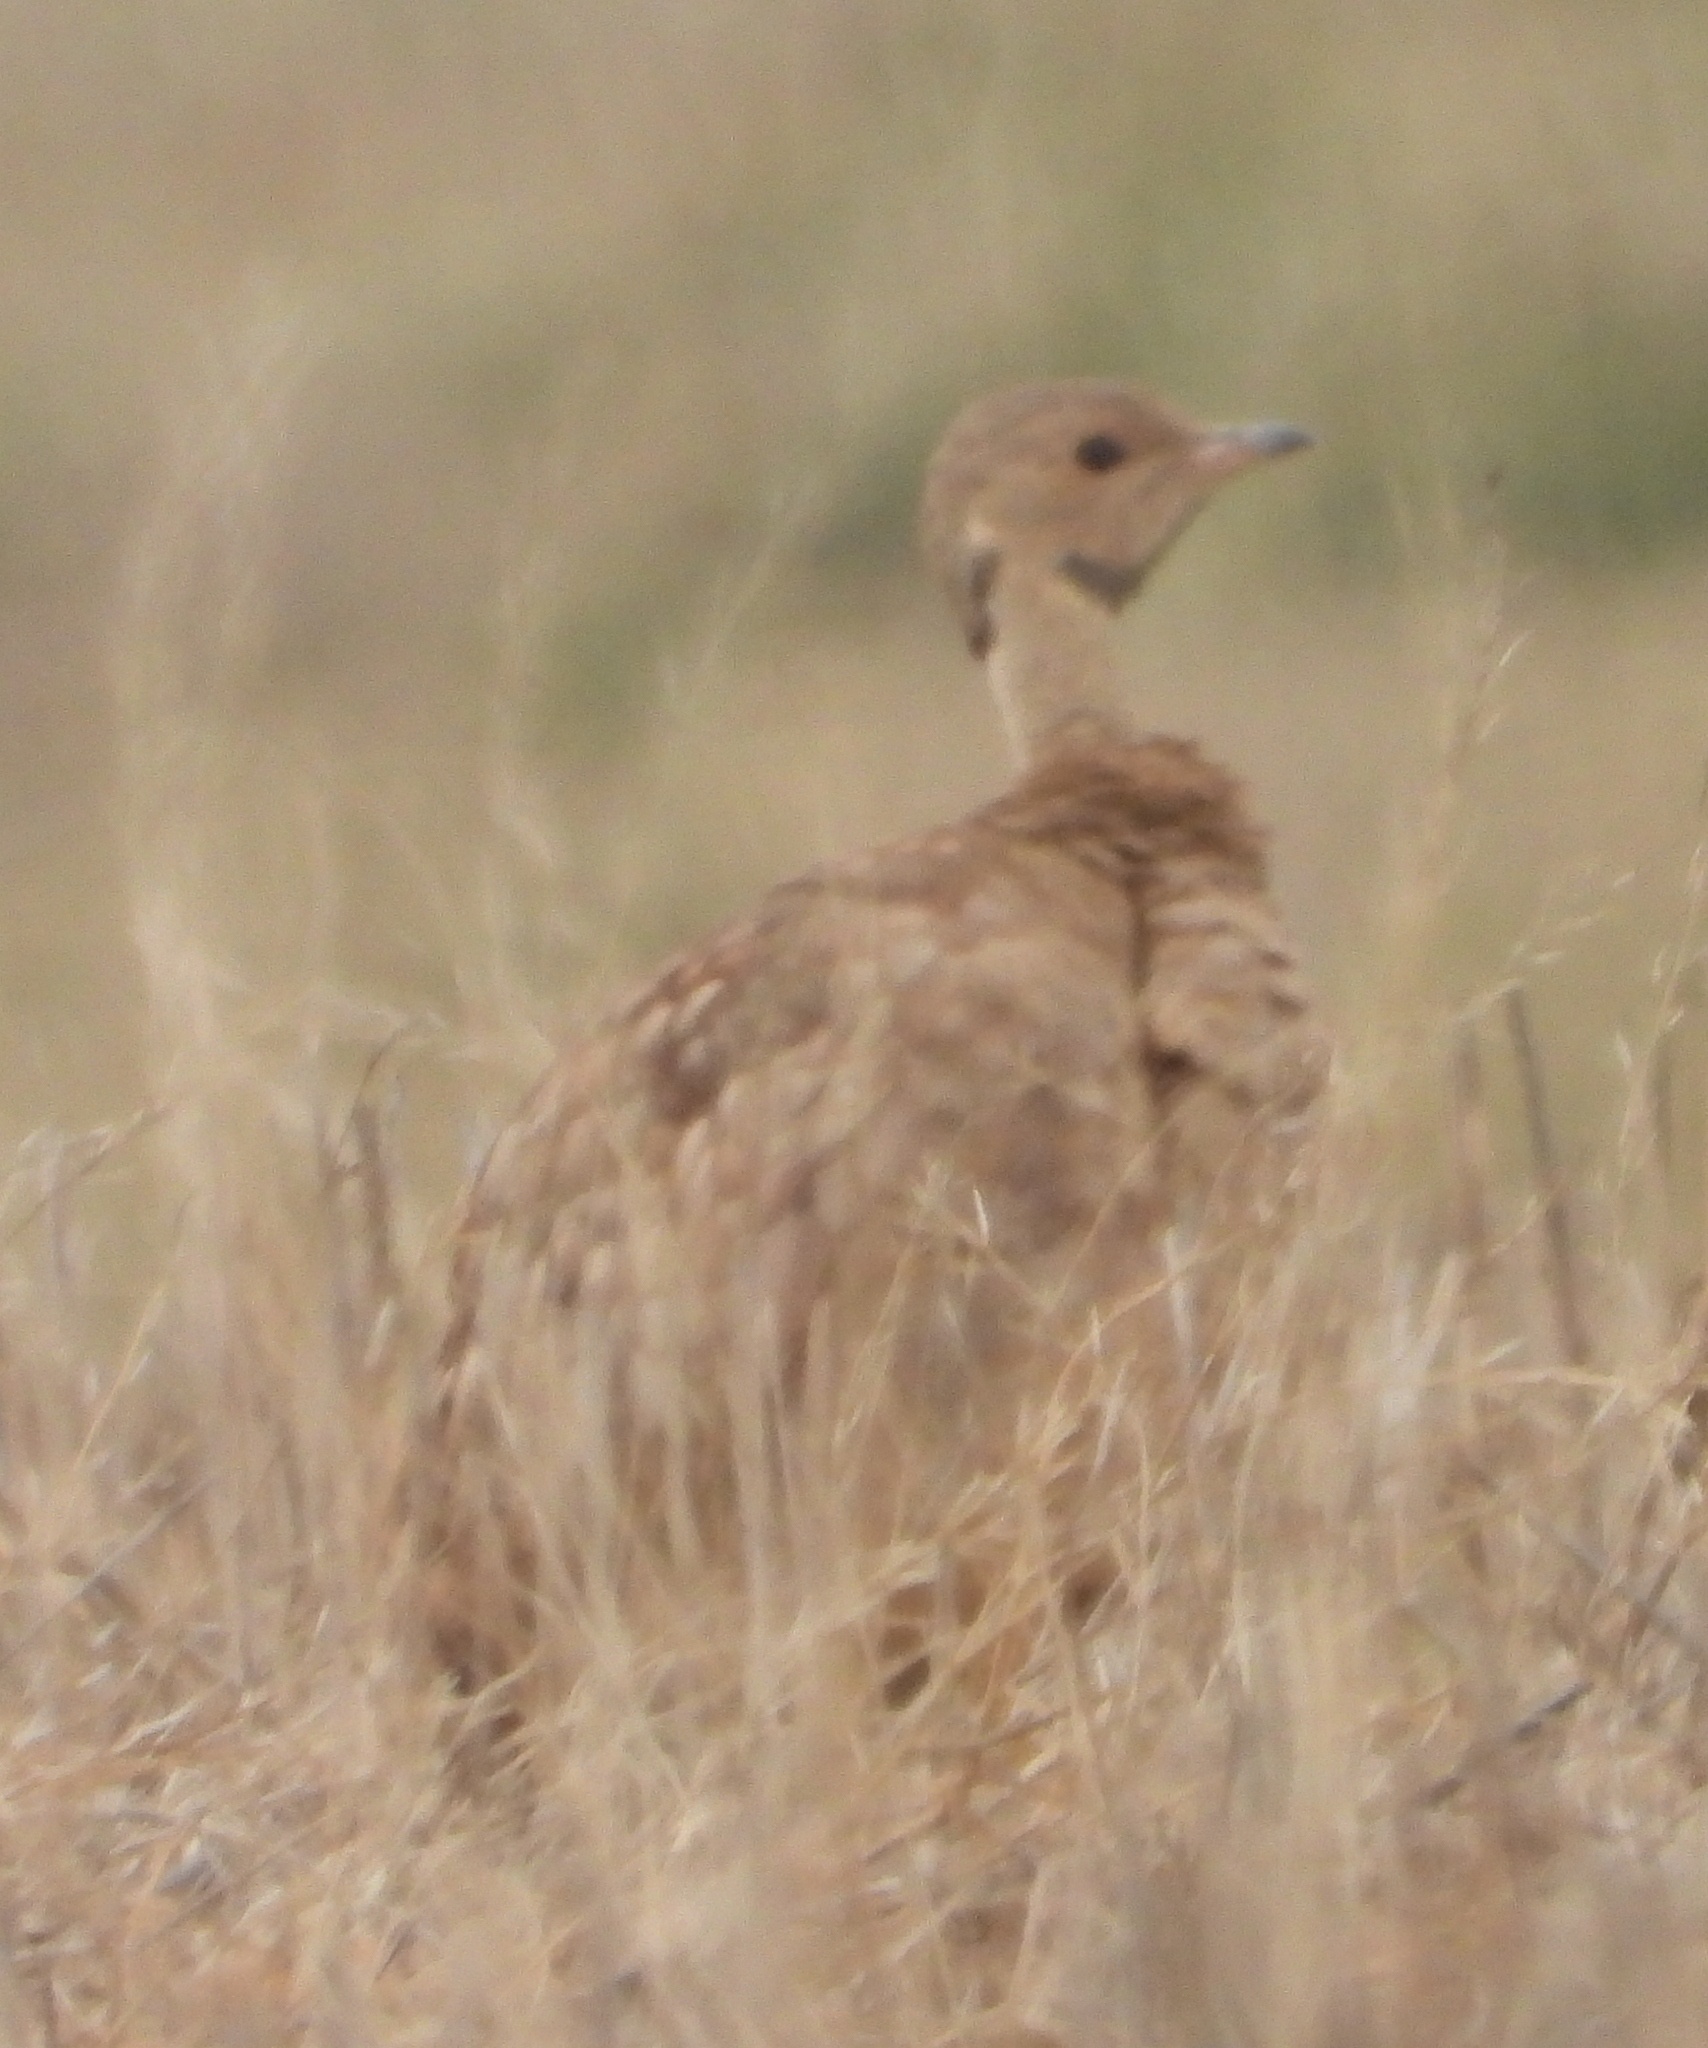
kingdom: Animalia
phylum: Chordata
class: Aves
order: Otidiformes
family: Otididae
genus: Eupodotis
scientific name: Eupodotis vigorsii
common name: Karoo korhaan
